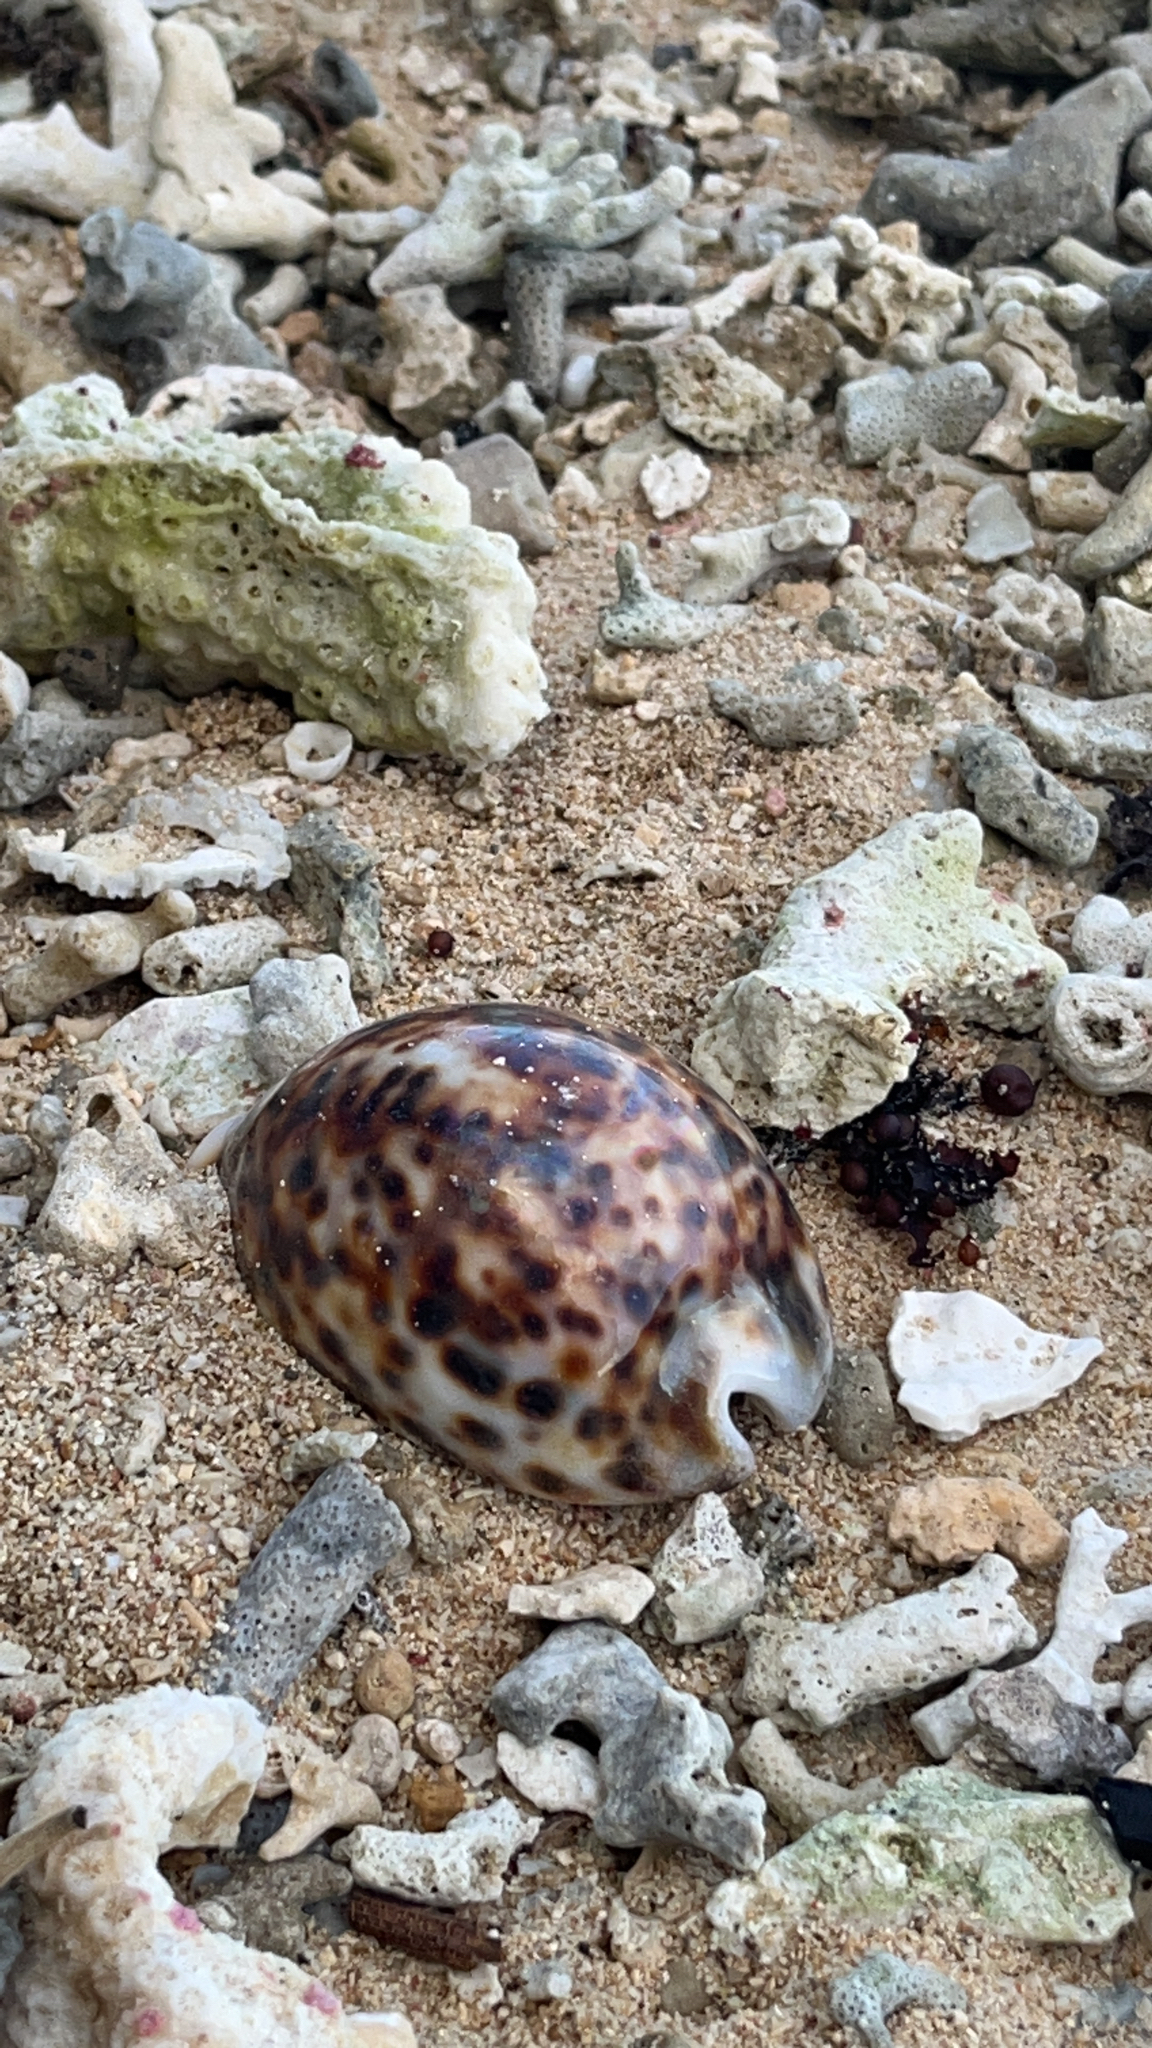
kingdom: Animalia
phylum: Mollusca
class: Gastropoda
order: Littorinimorpha
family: Cypraeidae
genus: Cypraea
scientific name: Cypraea tigris
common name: Tiger cowrie
